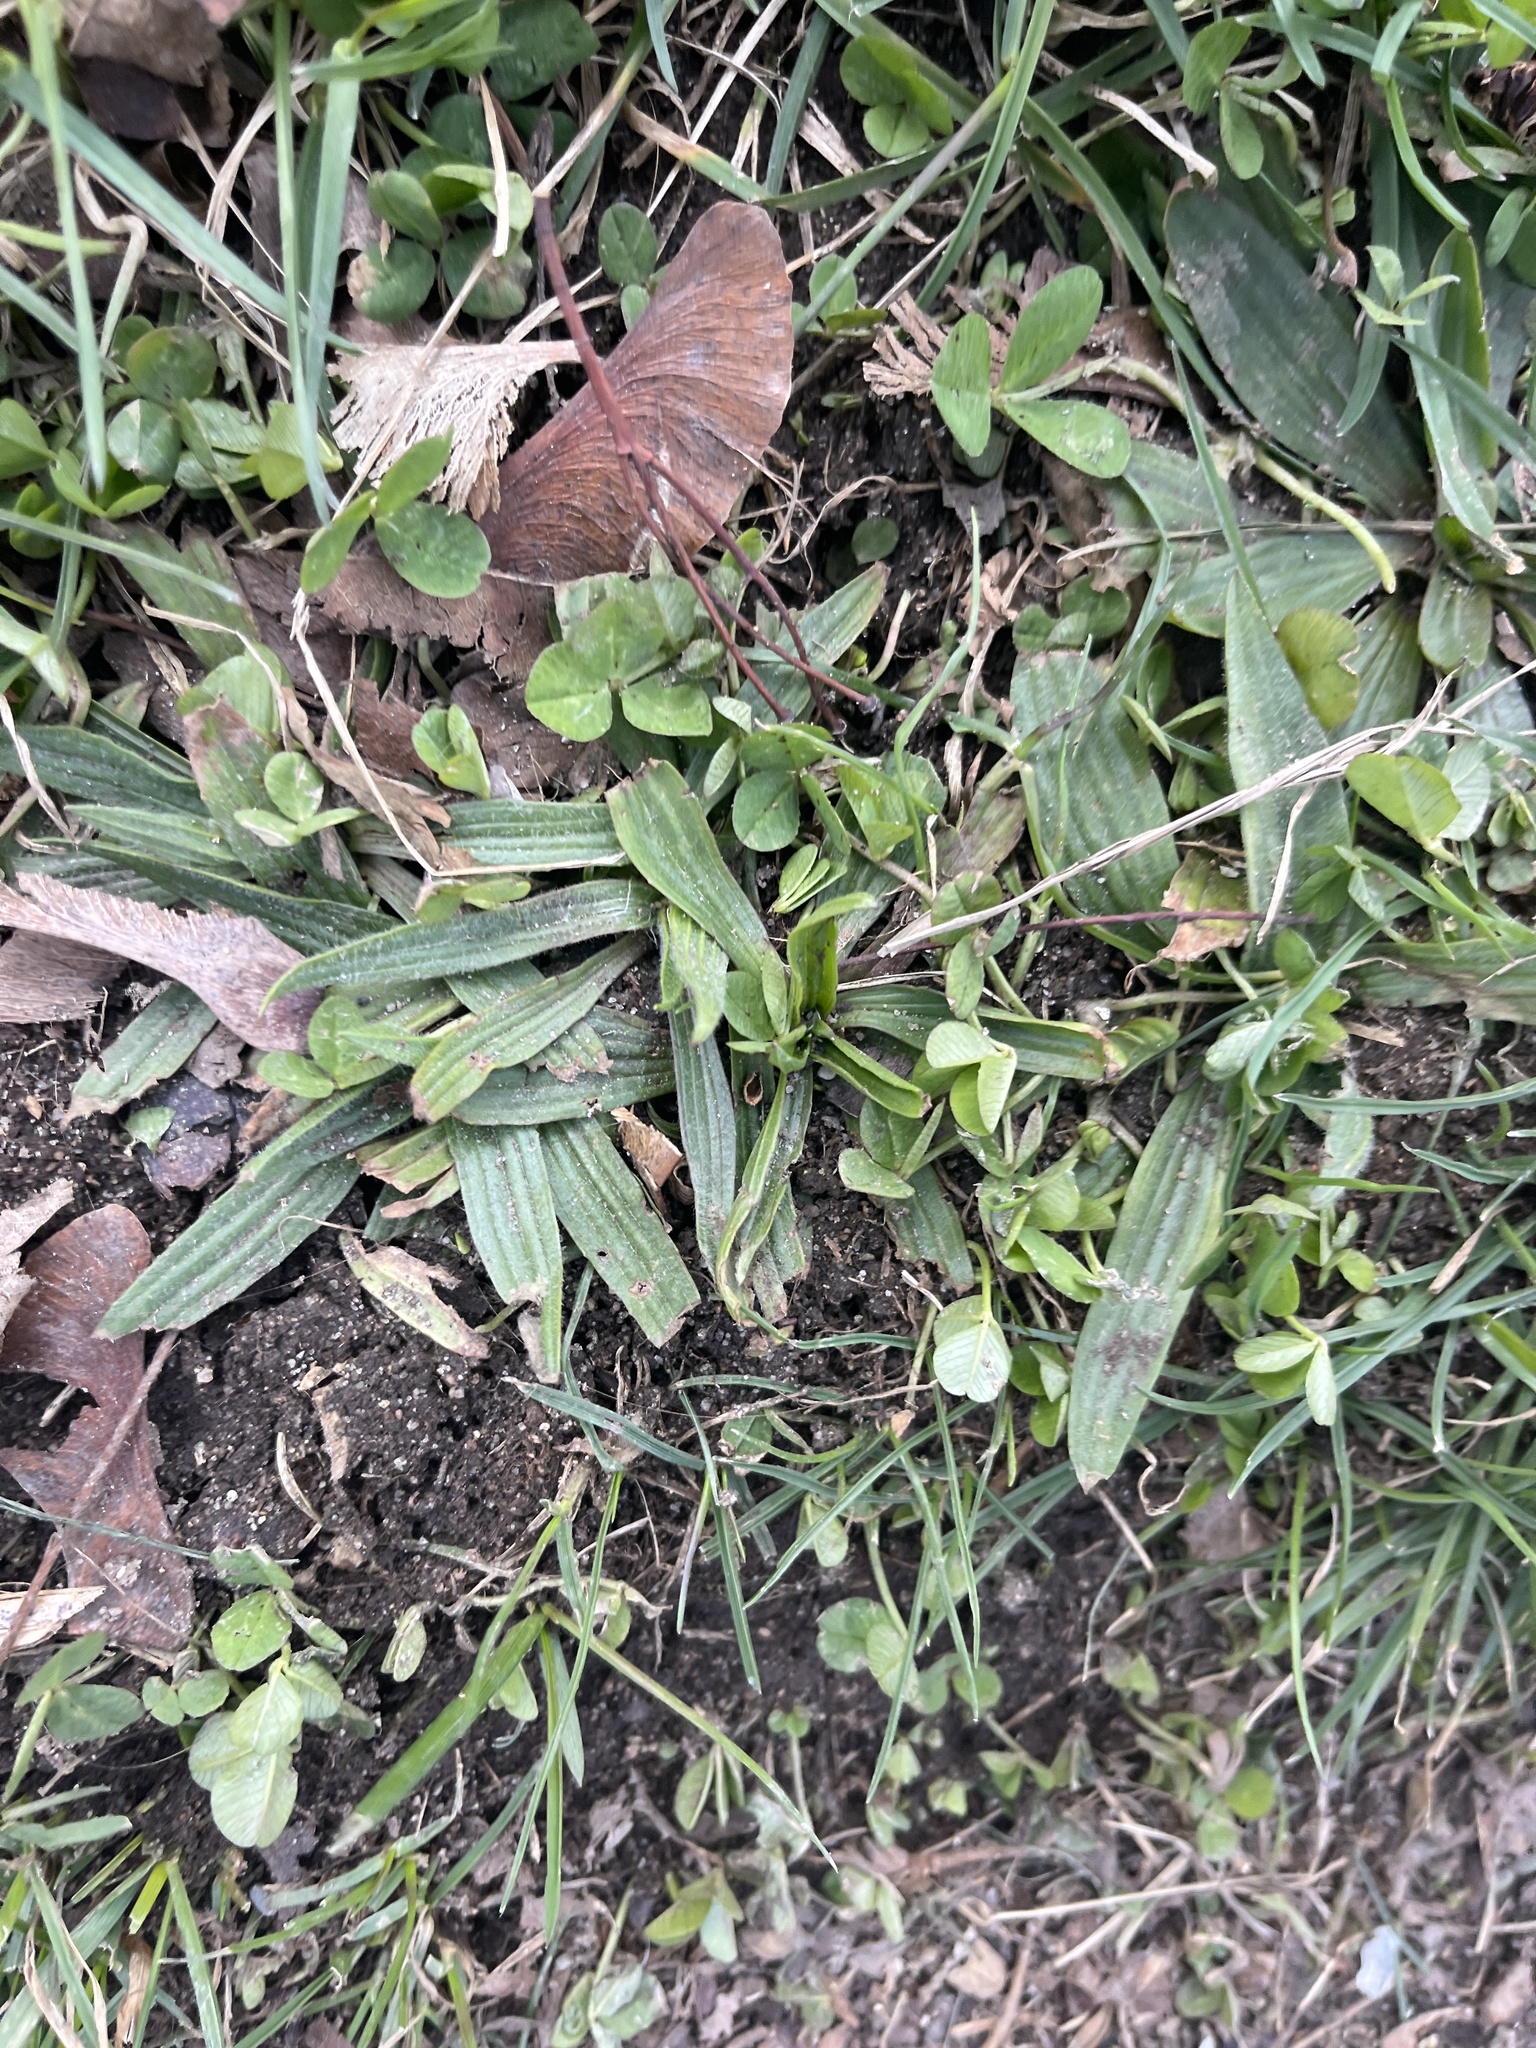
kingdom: Plantae
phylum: Tracheophyta
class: Magnoliopsida
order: Lamiales
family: Plantaginaceae
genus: Plantago
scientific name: Plantago lanceolata
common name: Ribwort plantain
